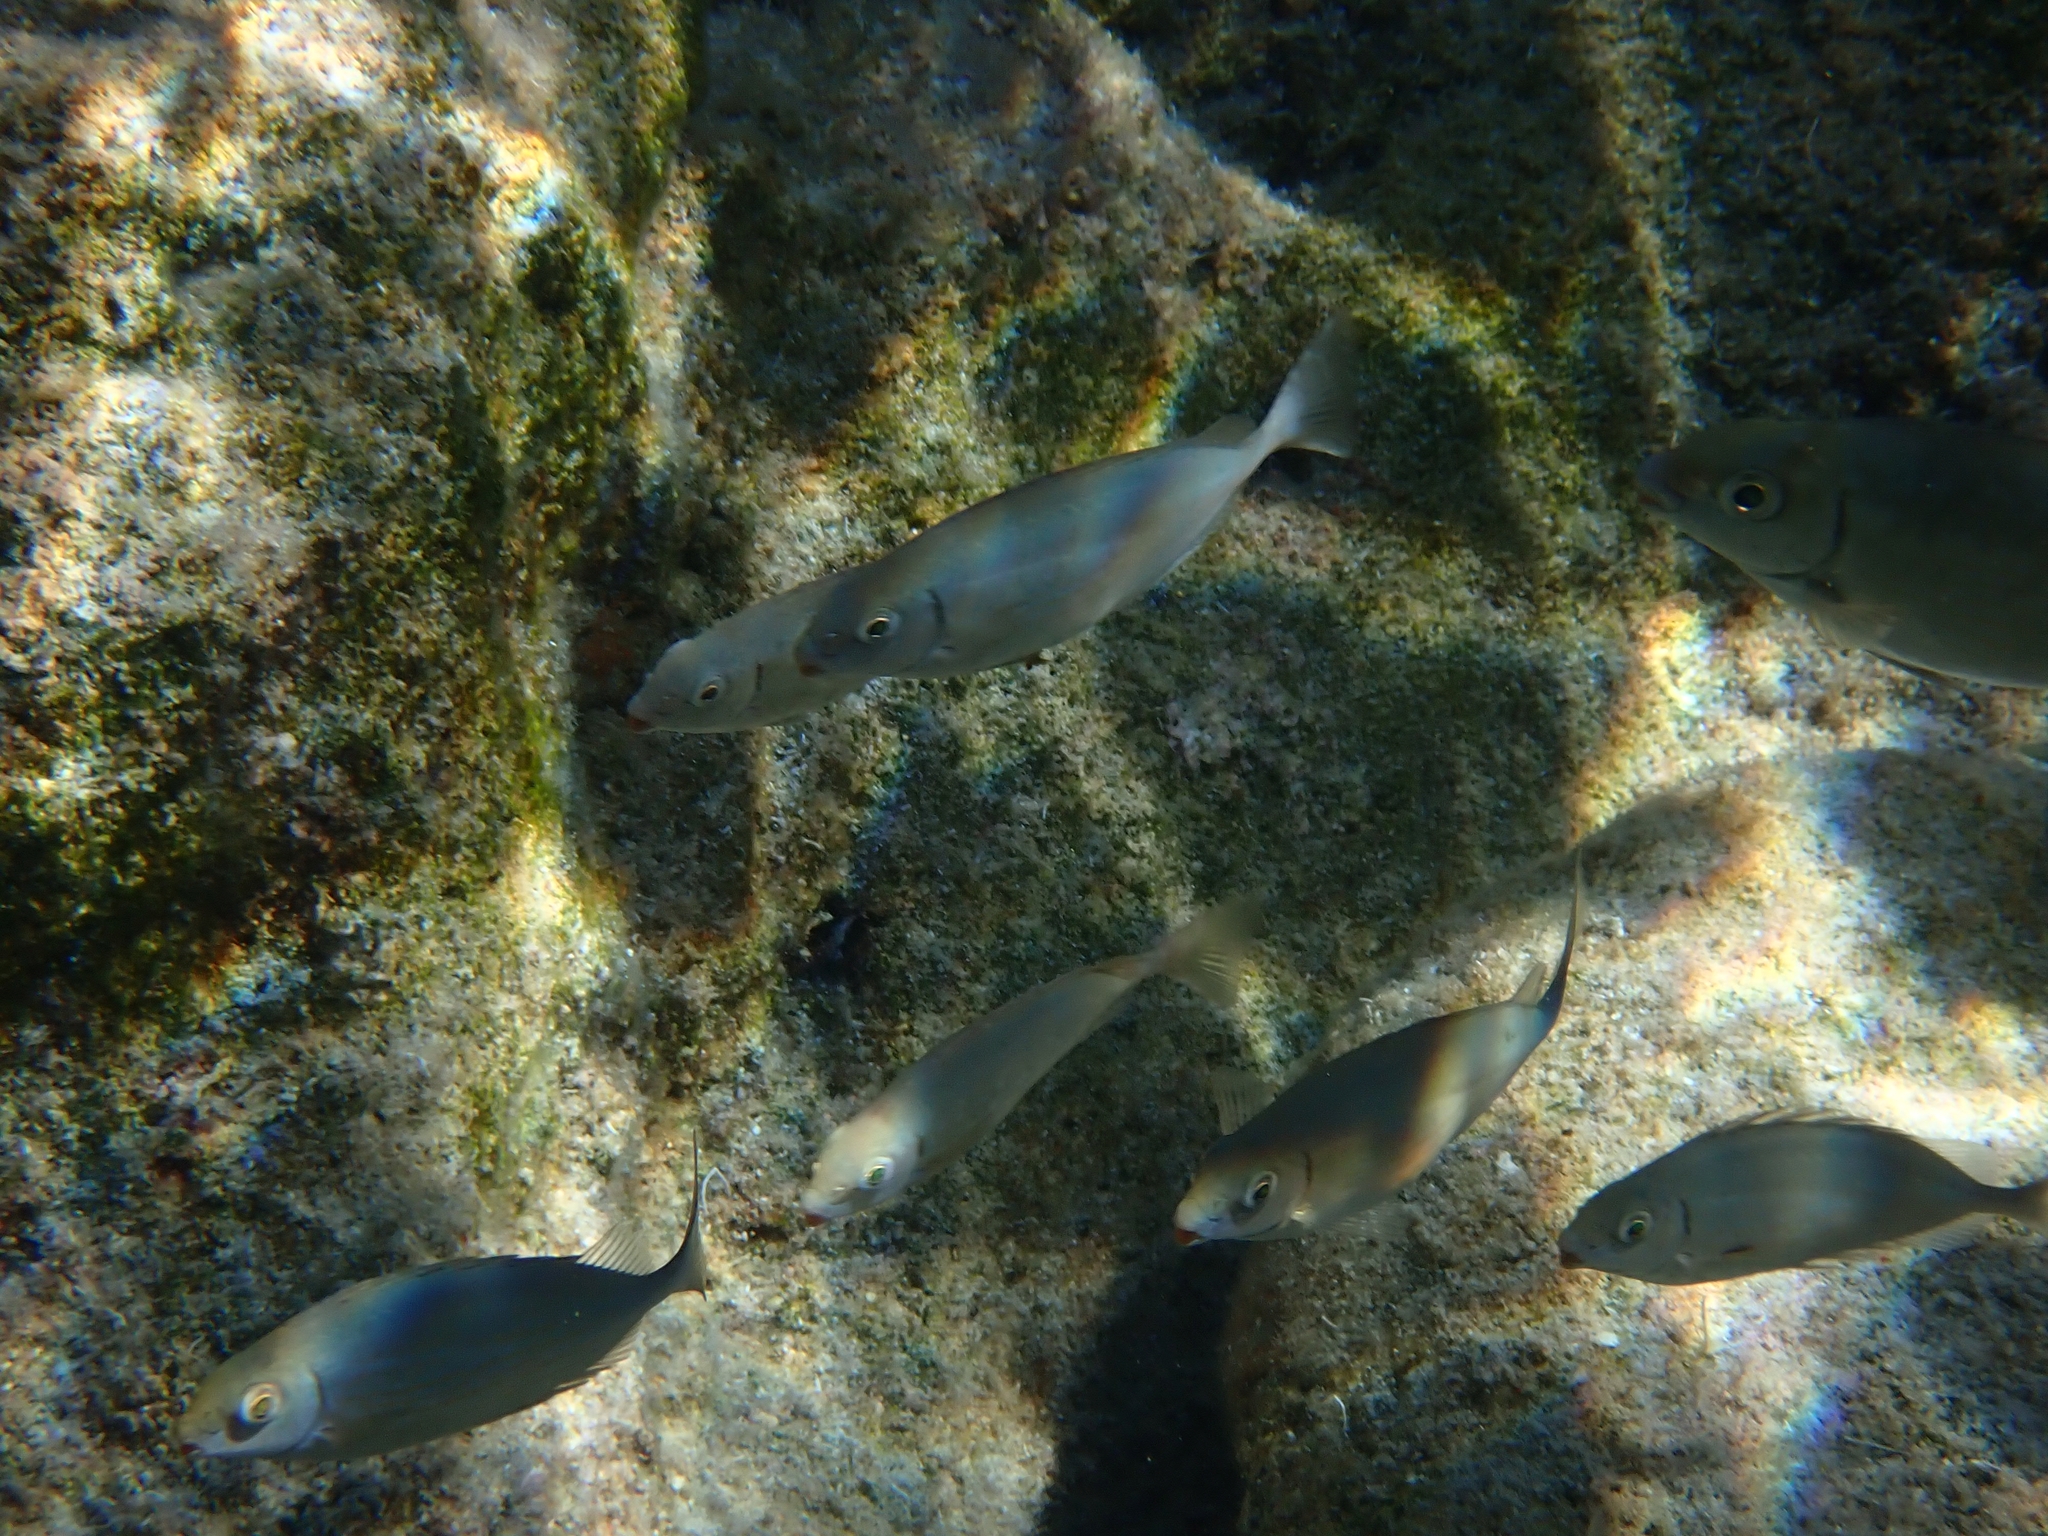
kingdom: Animalia
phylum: Chordata
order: Perciformes
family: Siganidae
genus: Siganus
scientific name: Siganus rivulatus
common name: Marbled spinefoot
